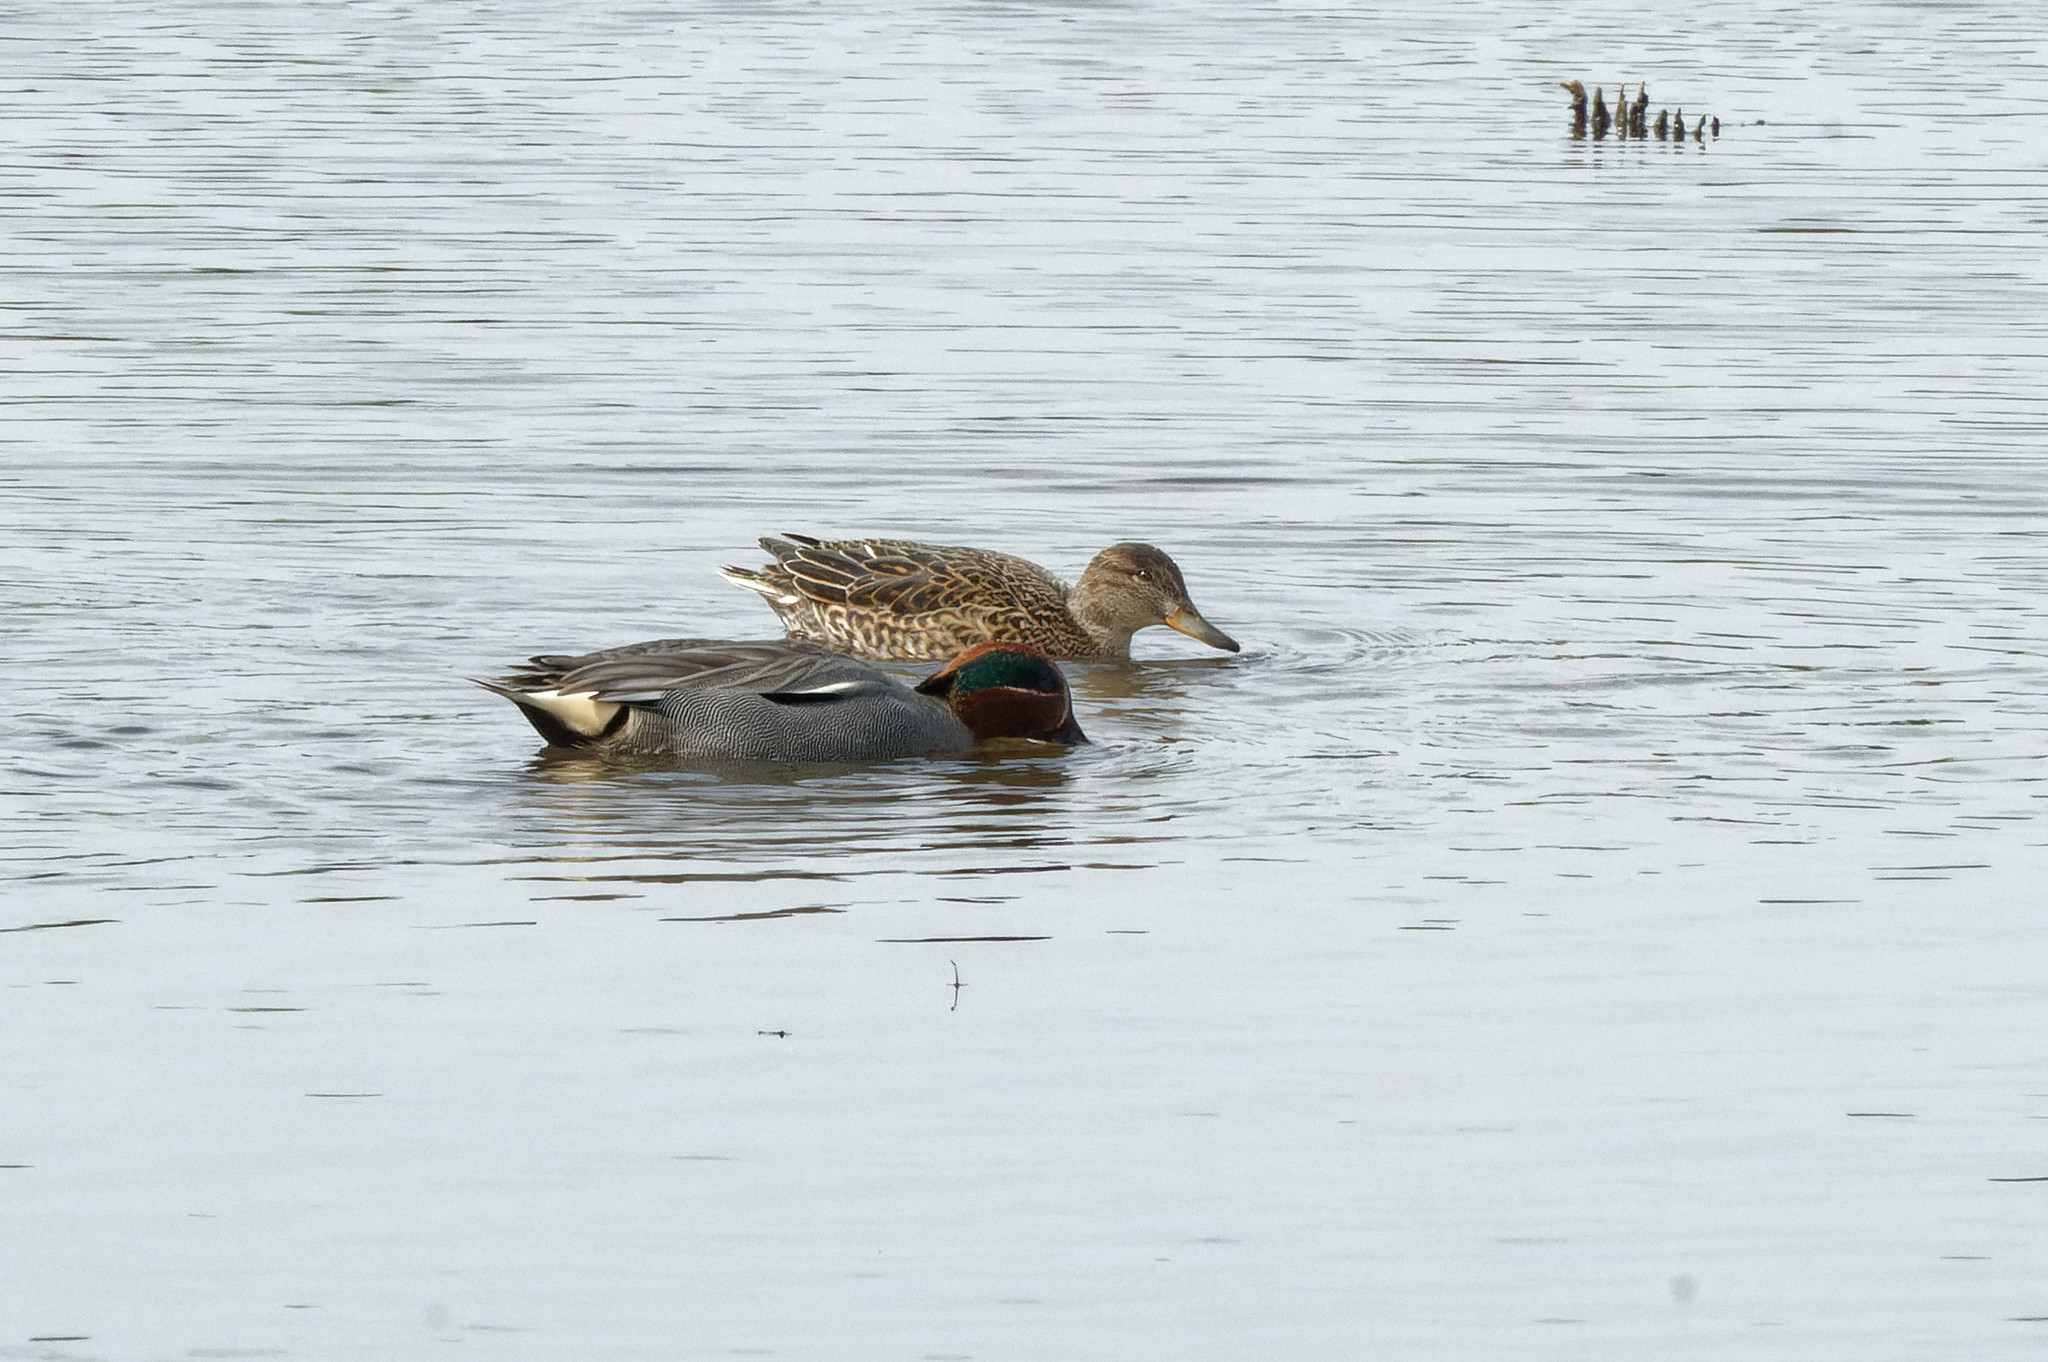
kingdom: Animalia
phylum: Chordata
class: Aves
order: Anseriformes
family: Anatidae
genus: Anas
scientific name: Anas crecca
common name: Eurasian teal
